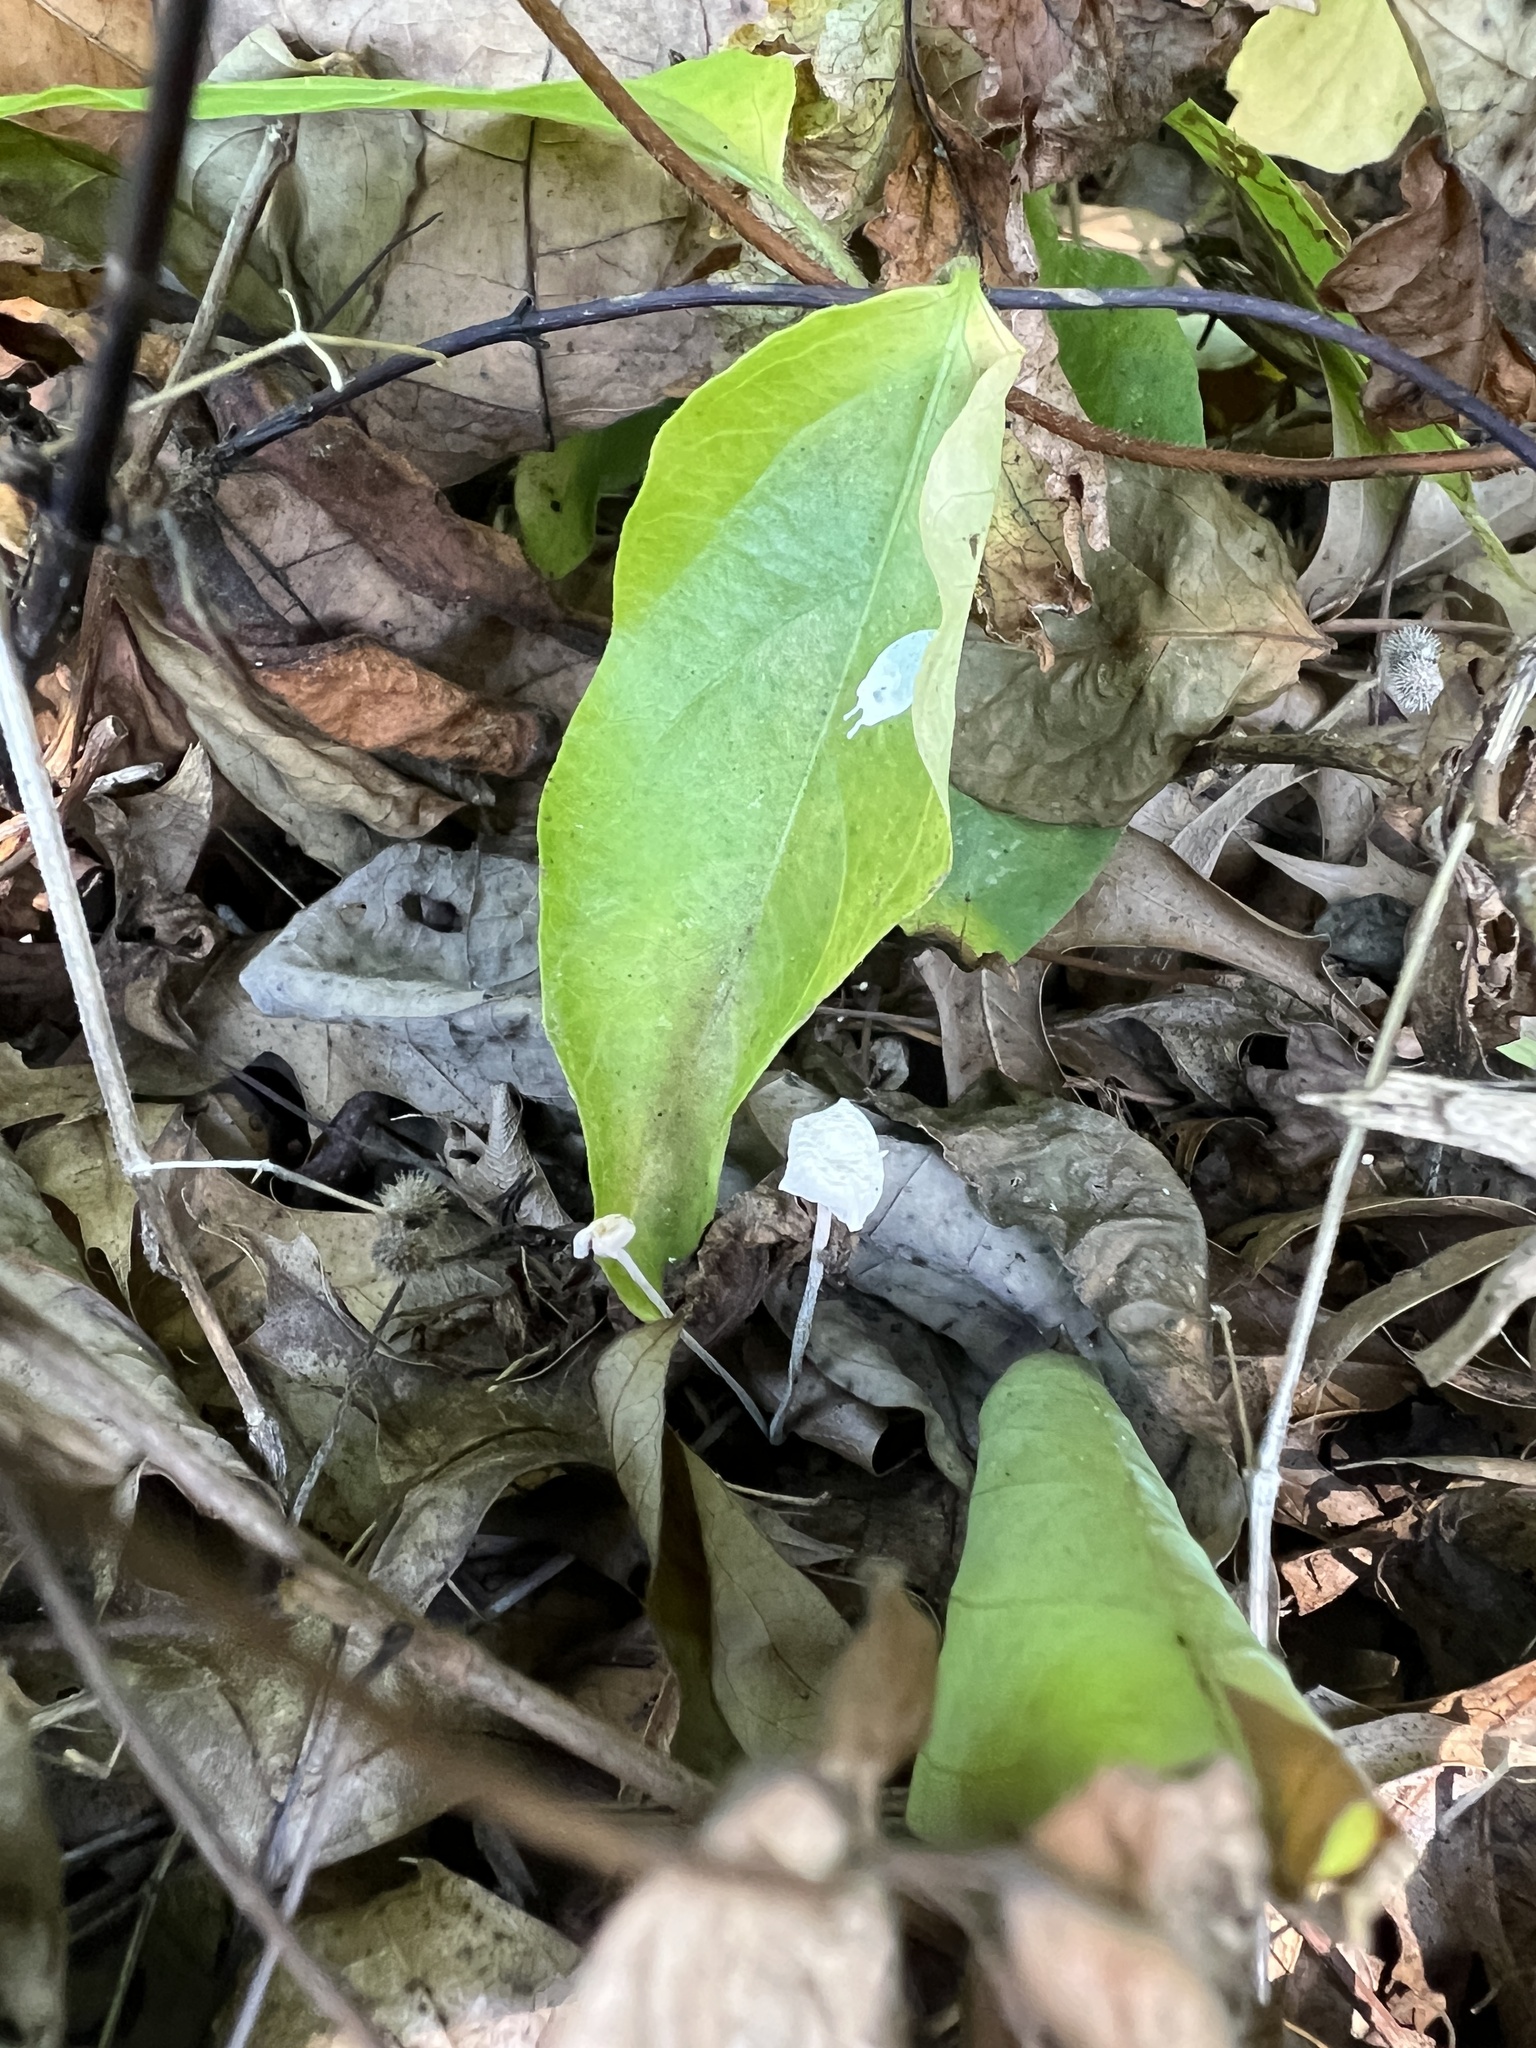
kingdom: Fungi
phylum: Basidiomycota
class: Agaricomycetes
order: Agaricales
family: Marasmiaceae
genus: Tetrapyrgos
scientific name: Tetrapyrgos nigripes
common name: Black-stalked marasmius
